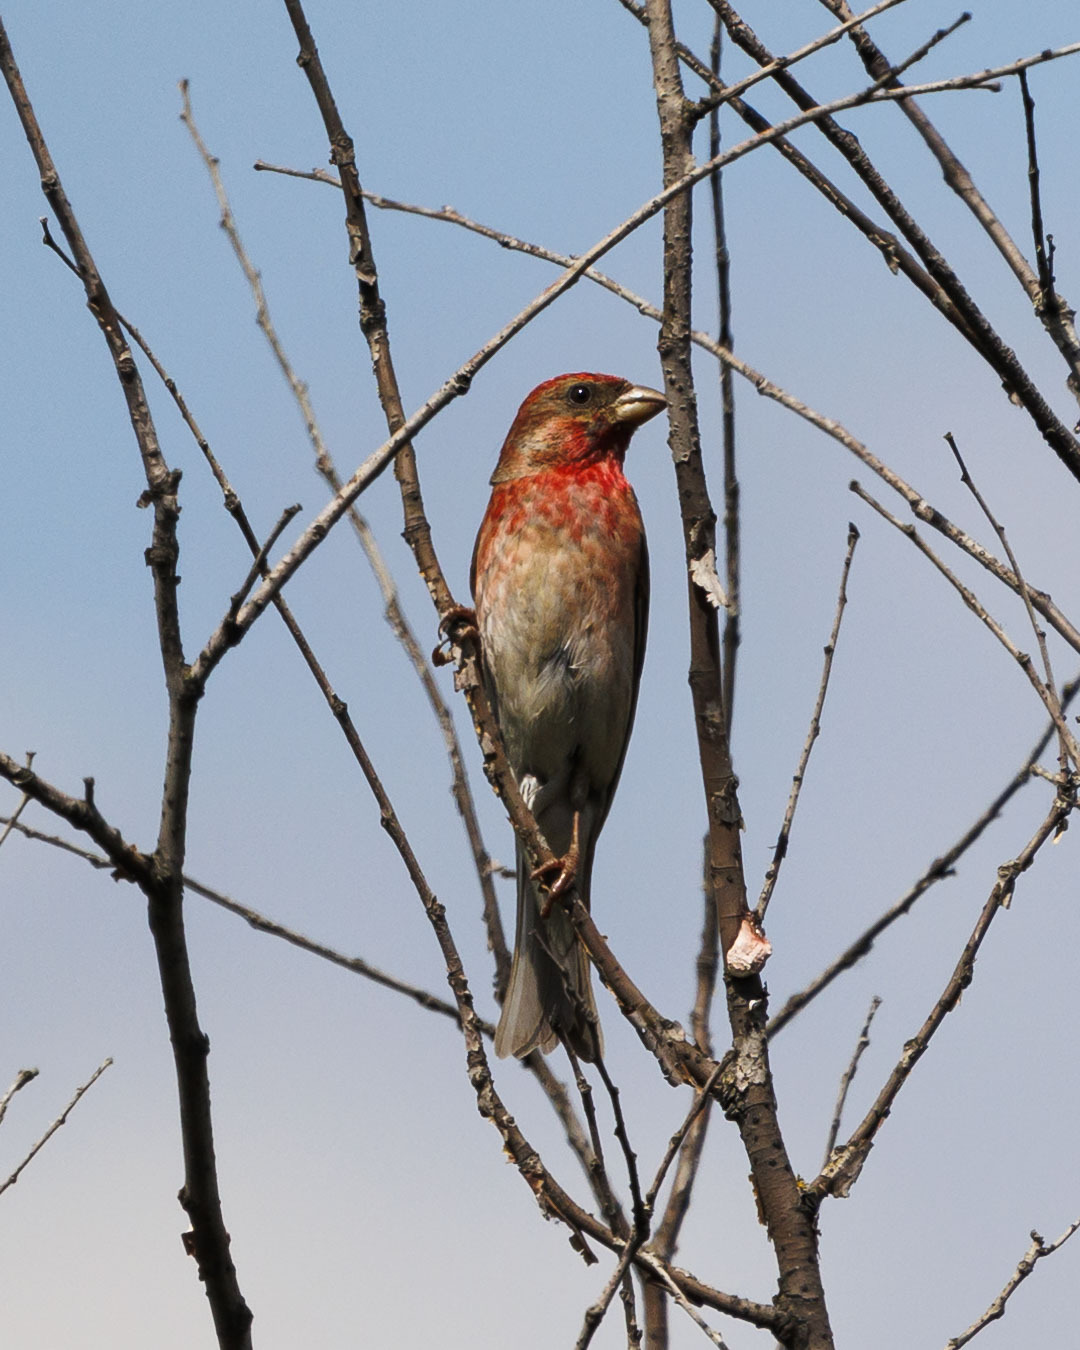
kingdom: Animalia
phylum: Chordata
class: Aves
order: Passeriformes
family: Fringillidae
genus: Carpodacus
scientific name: Carpodacus erythrinus
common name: Common rosefinch
